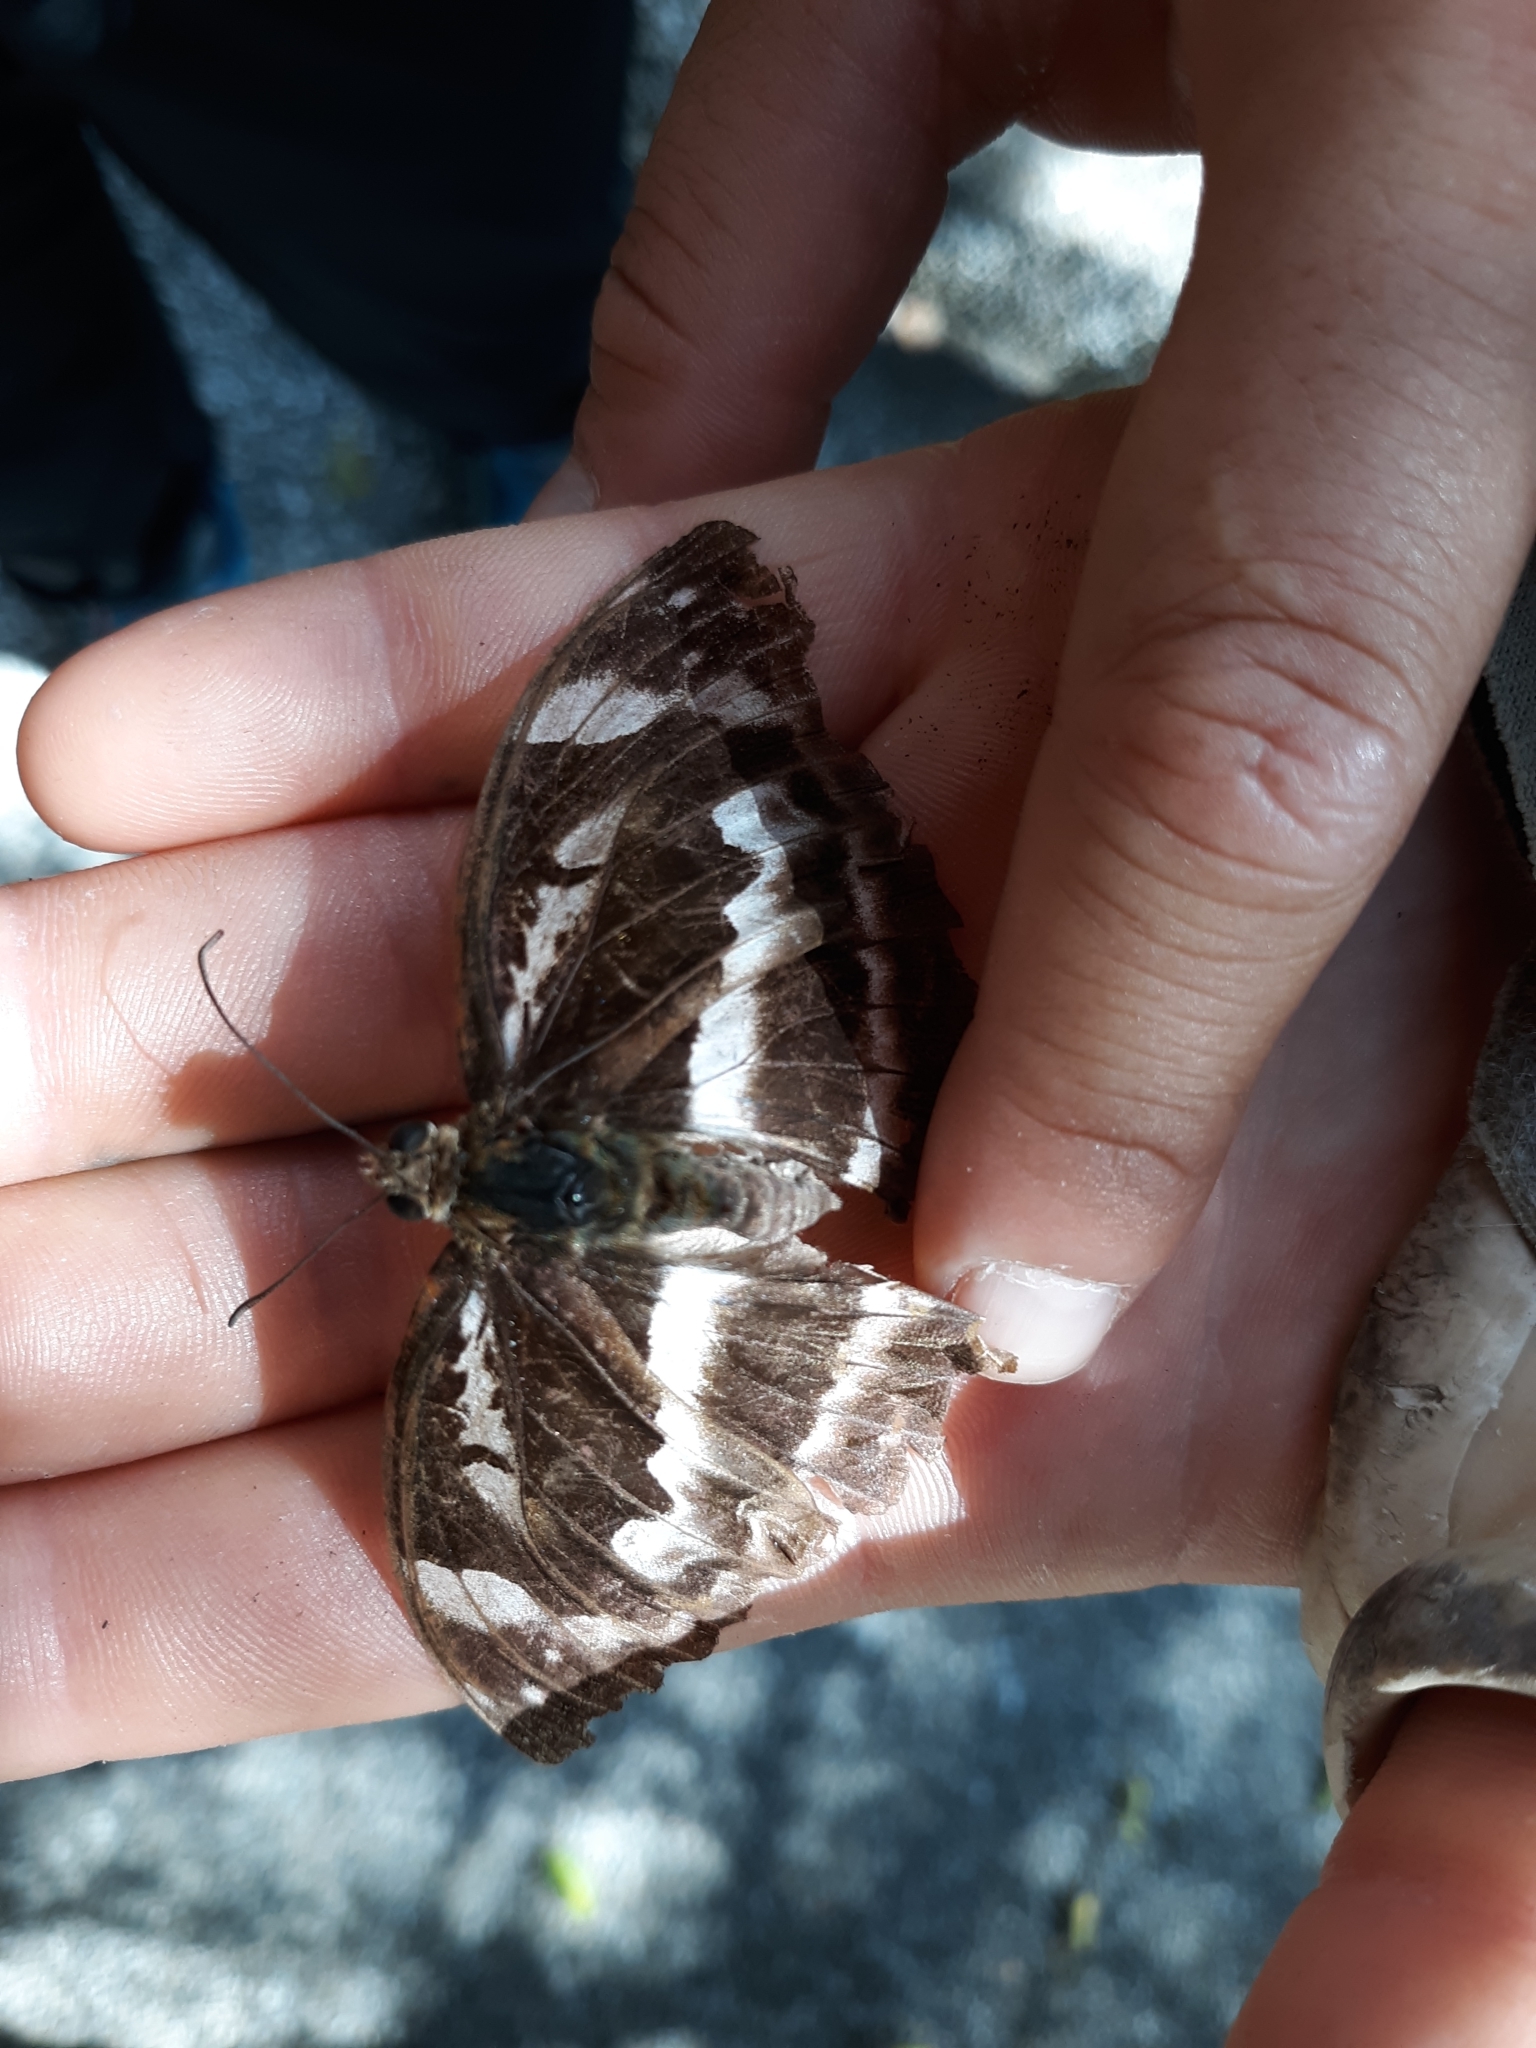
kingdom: Animalia
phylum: Arthropoda
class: Insecta
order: Lepidoptera
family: Nymphalidae
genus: Abrota
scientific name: Abrota ganga
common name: Sergeant-major
